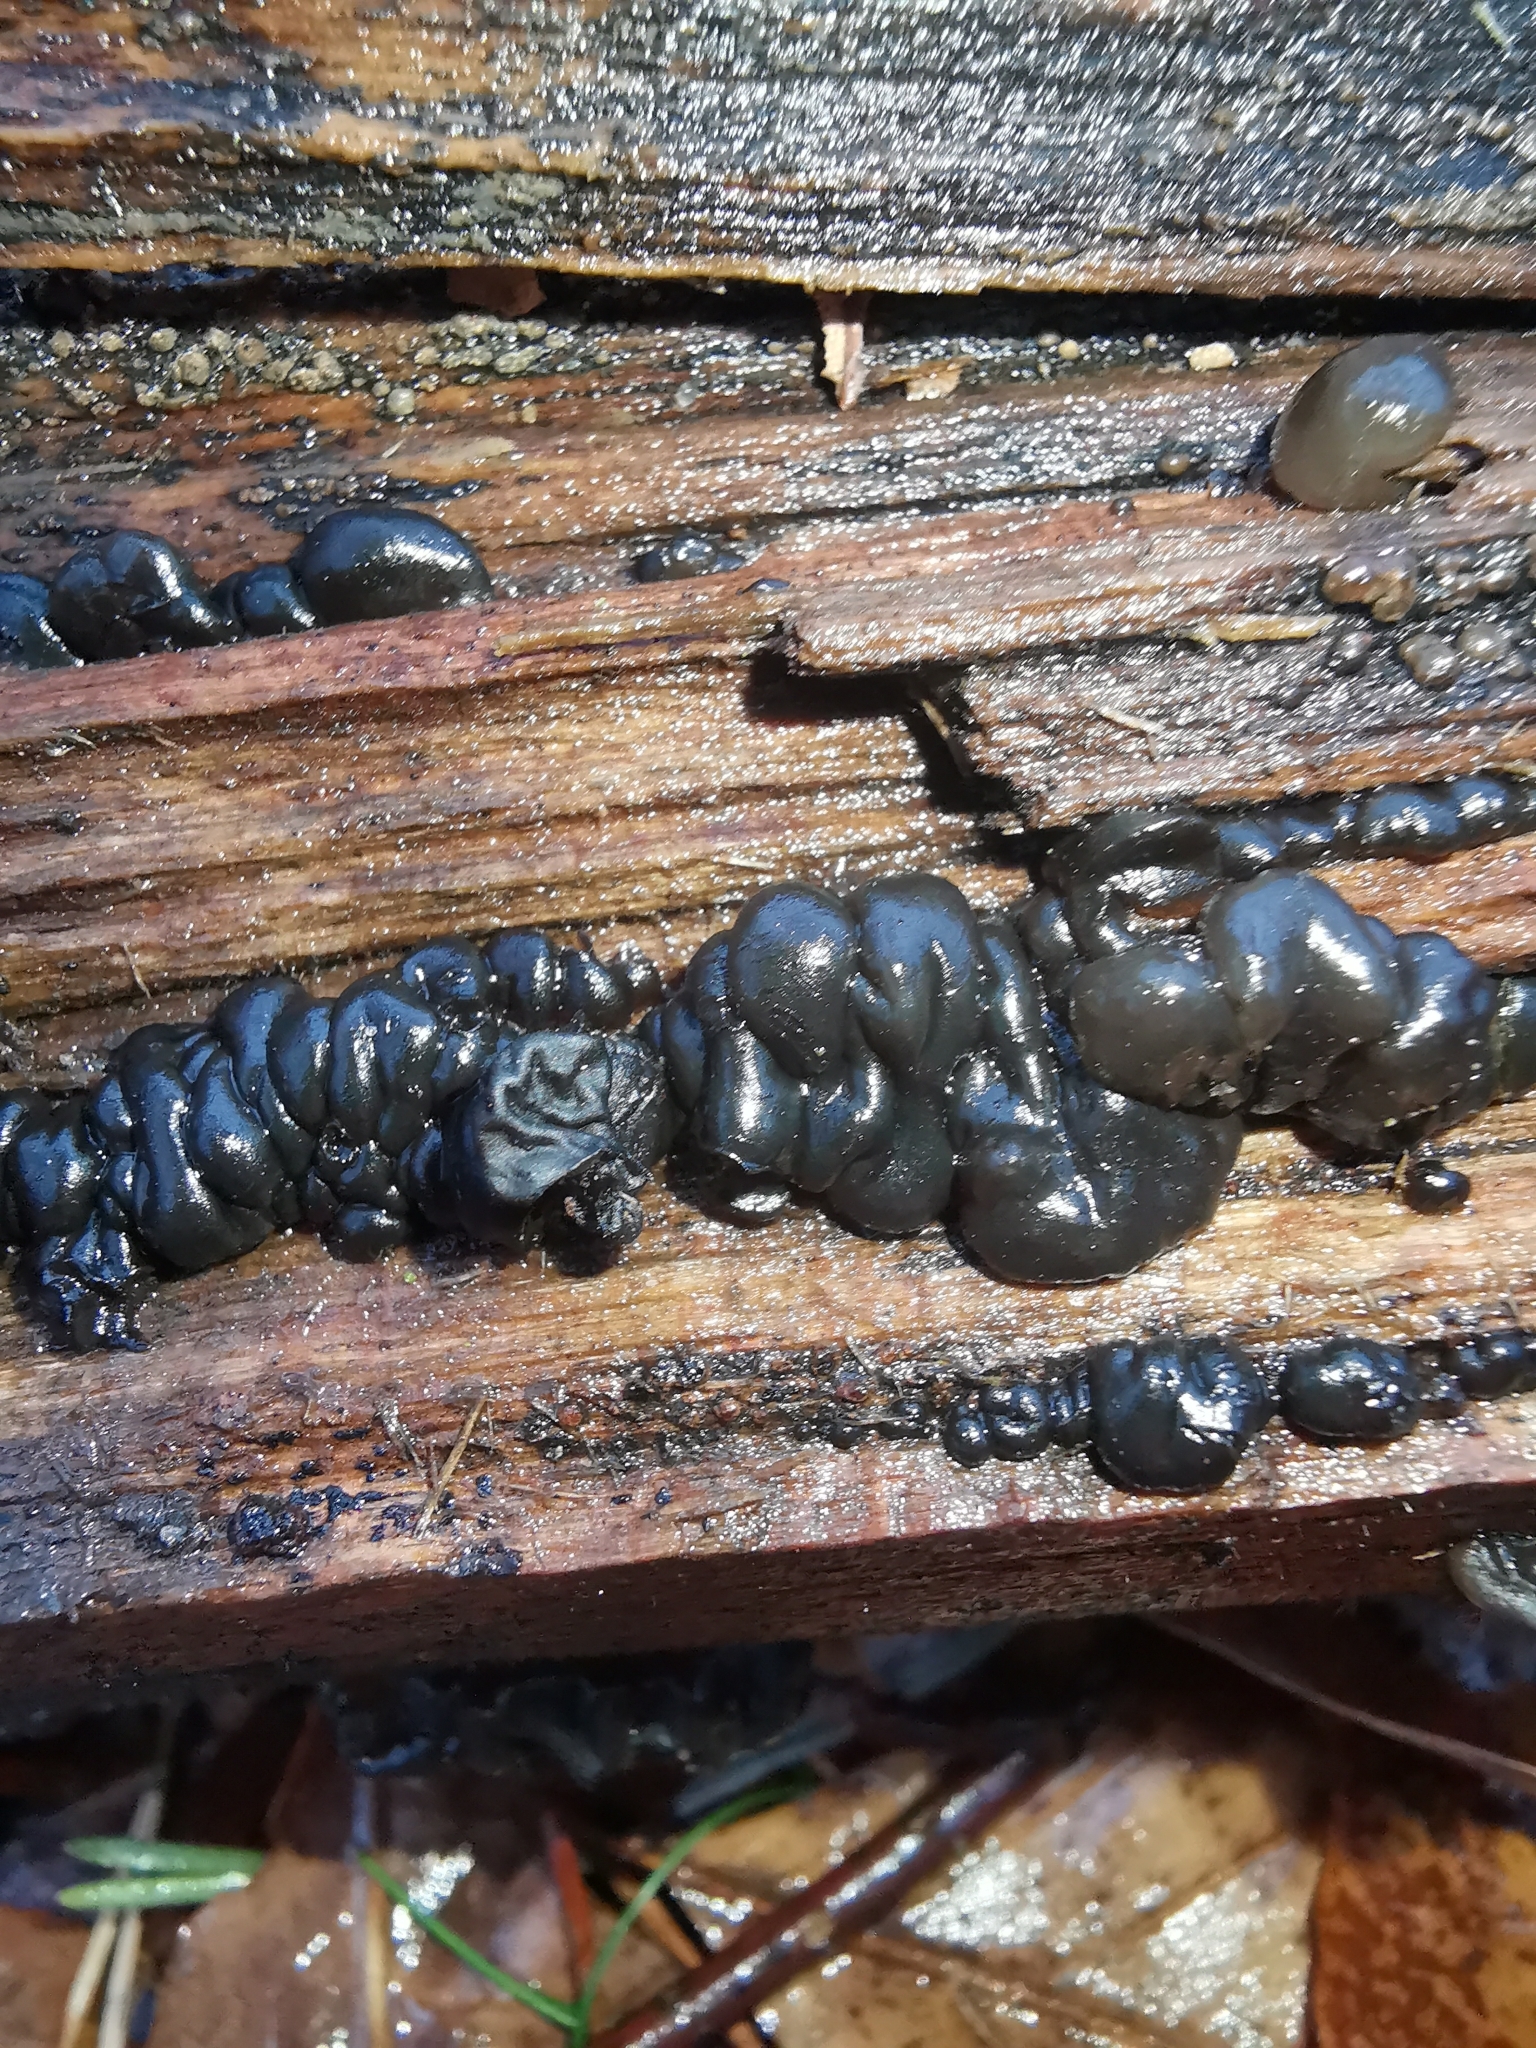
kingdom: Fungi
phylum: Basidiomycota
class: Agaricomycetes
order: Auriculariales
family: Auriculariaceae
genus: Exidia
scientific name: Exidia nigricans
